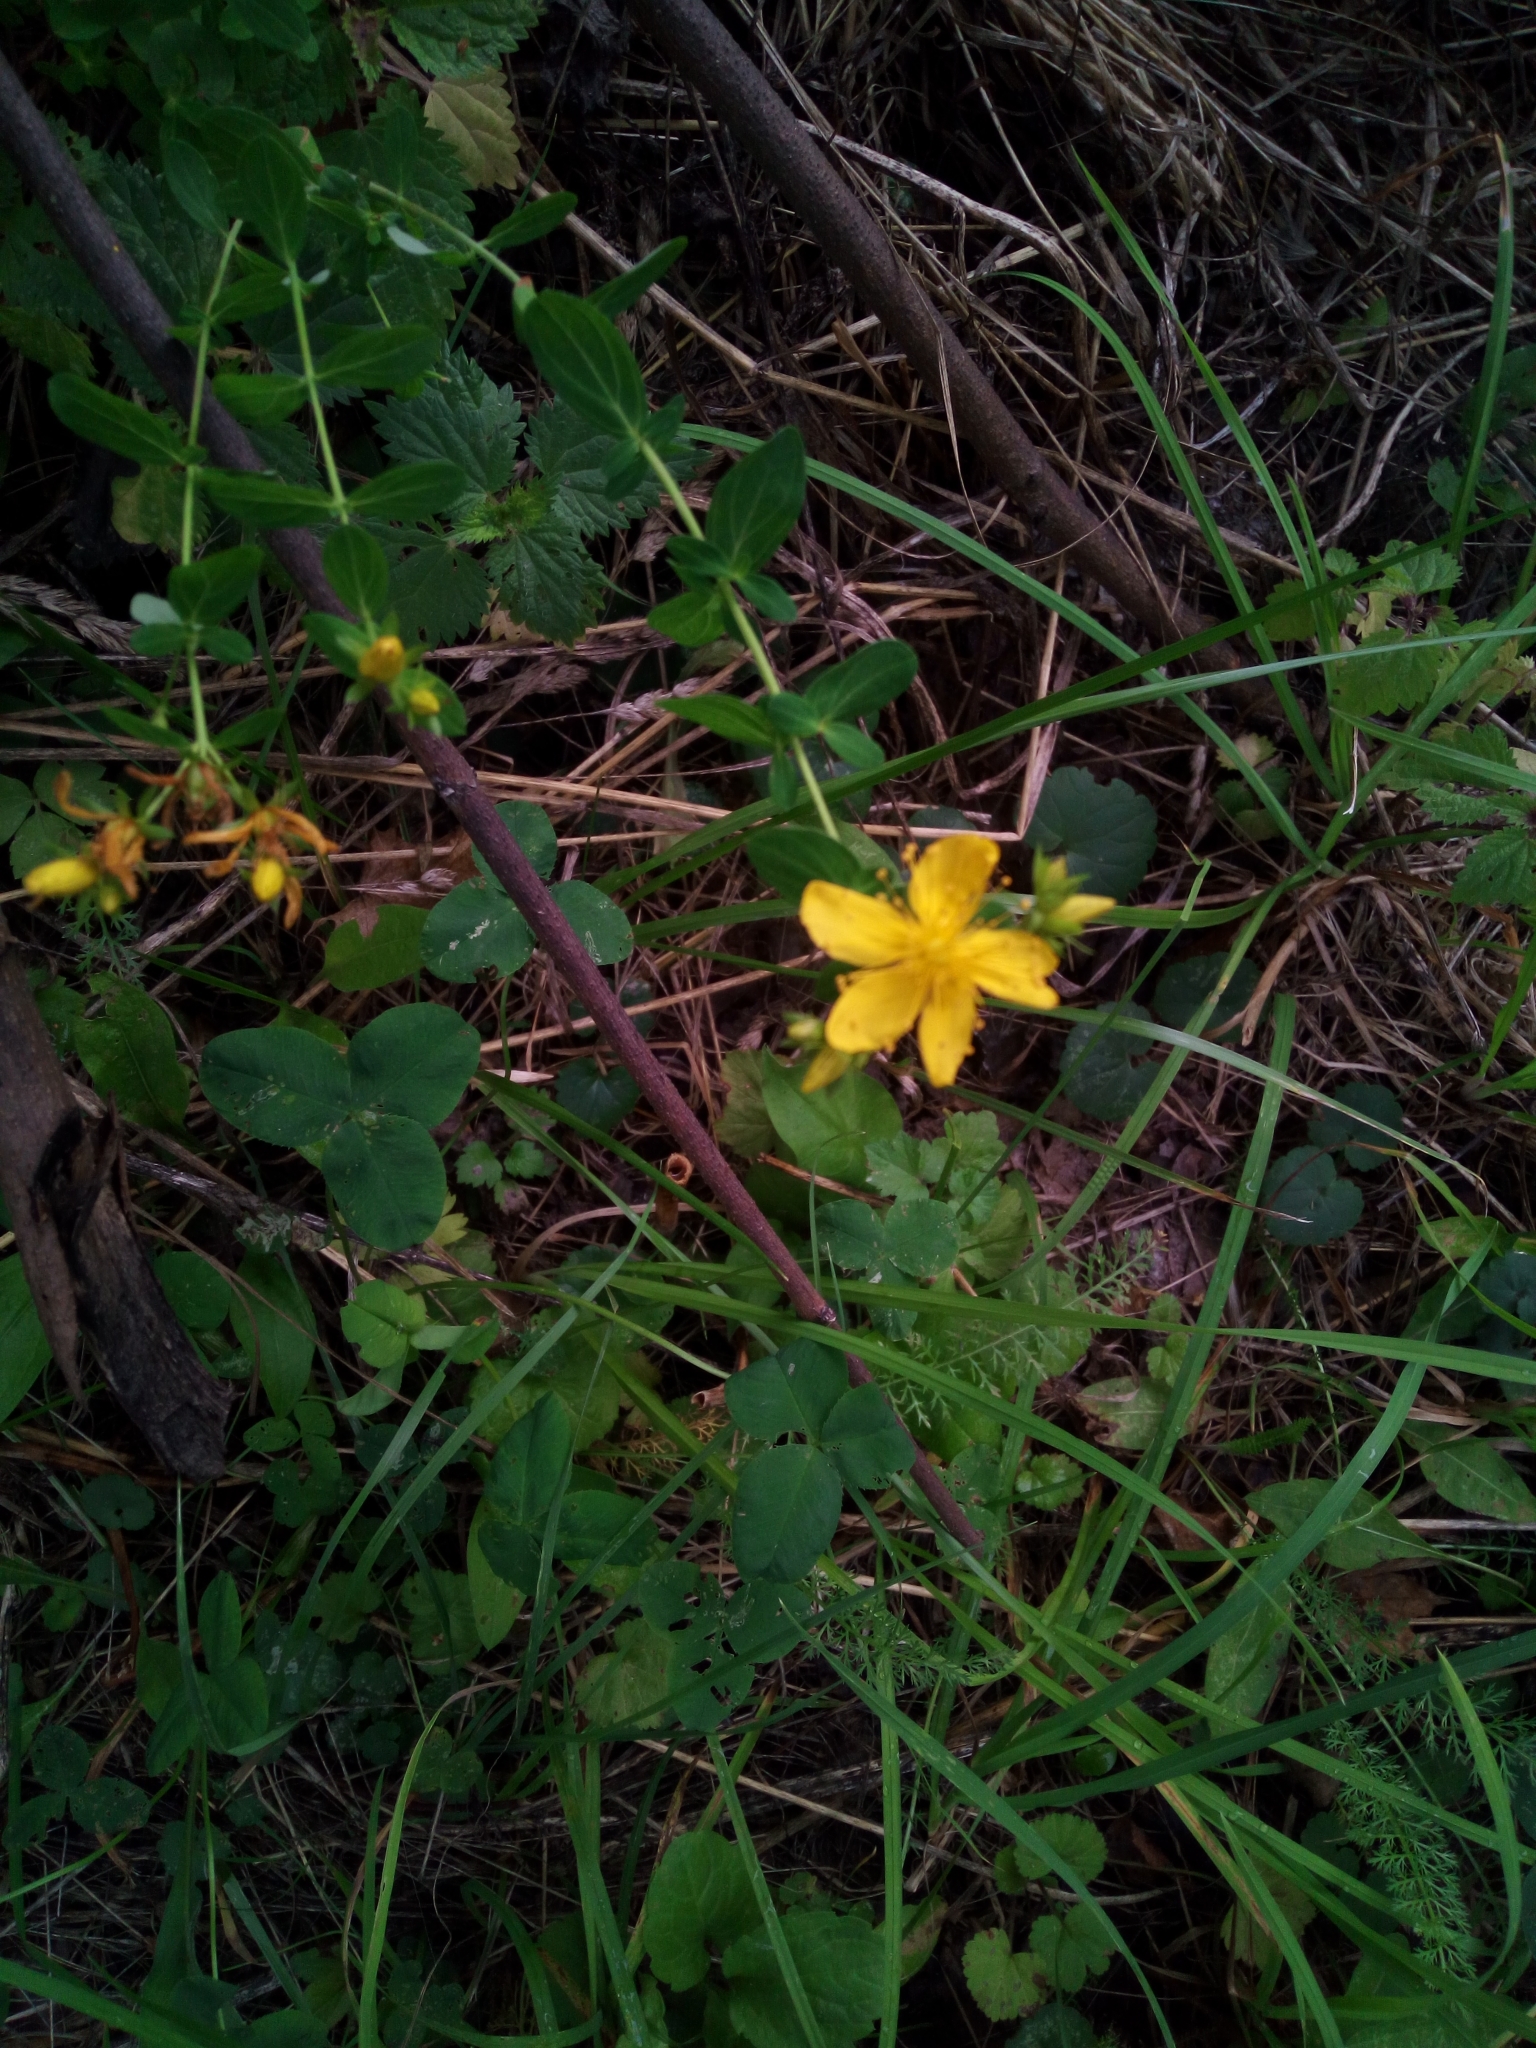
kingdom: Plantae
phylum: Tracheophyta
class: Magnoliopsida
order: Malpighiales
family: Hypericaceae
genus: Hypericum
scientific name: Hypericum perforatum
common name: Common st. johnswort
